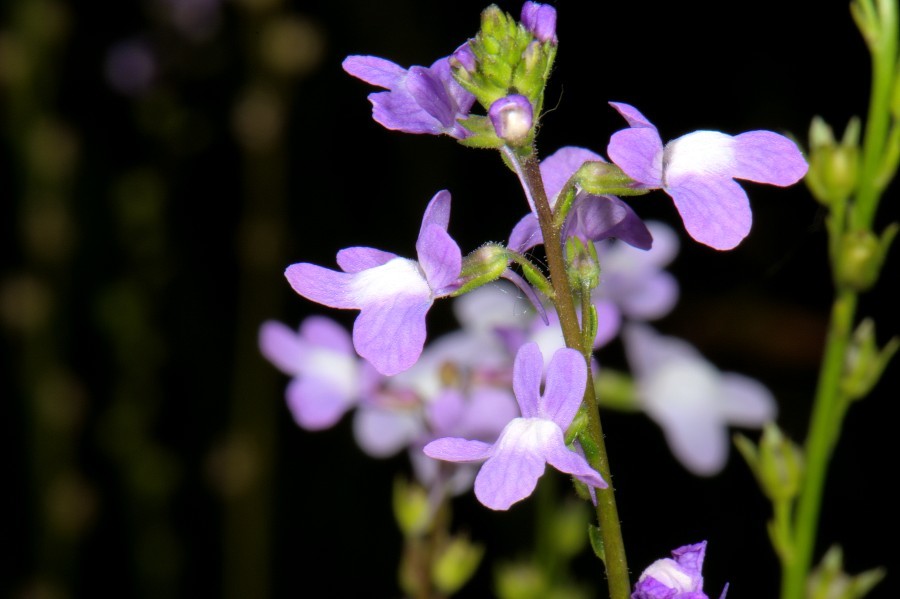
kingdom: Plantae
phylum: Tracheophyta
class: Magnoliopsida
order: Lamiales
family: Plantaginaceae
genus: Nuttallanthus
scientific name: Nuttallanthus canadensis
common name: Blue toadflax
